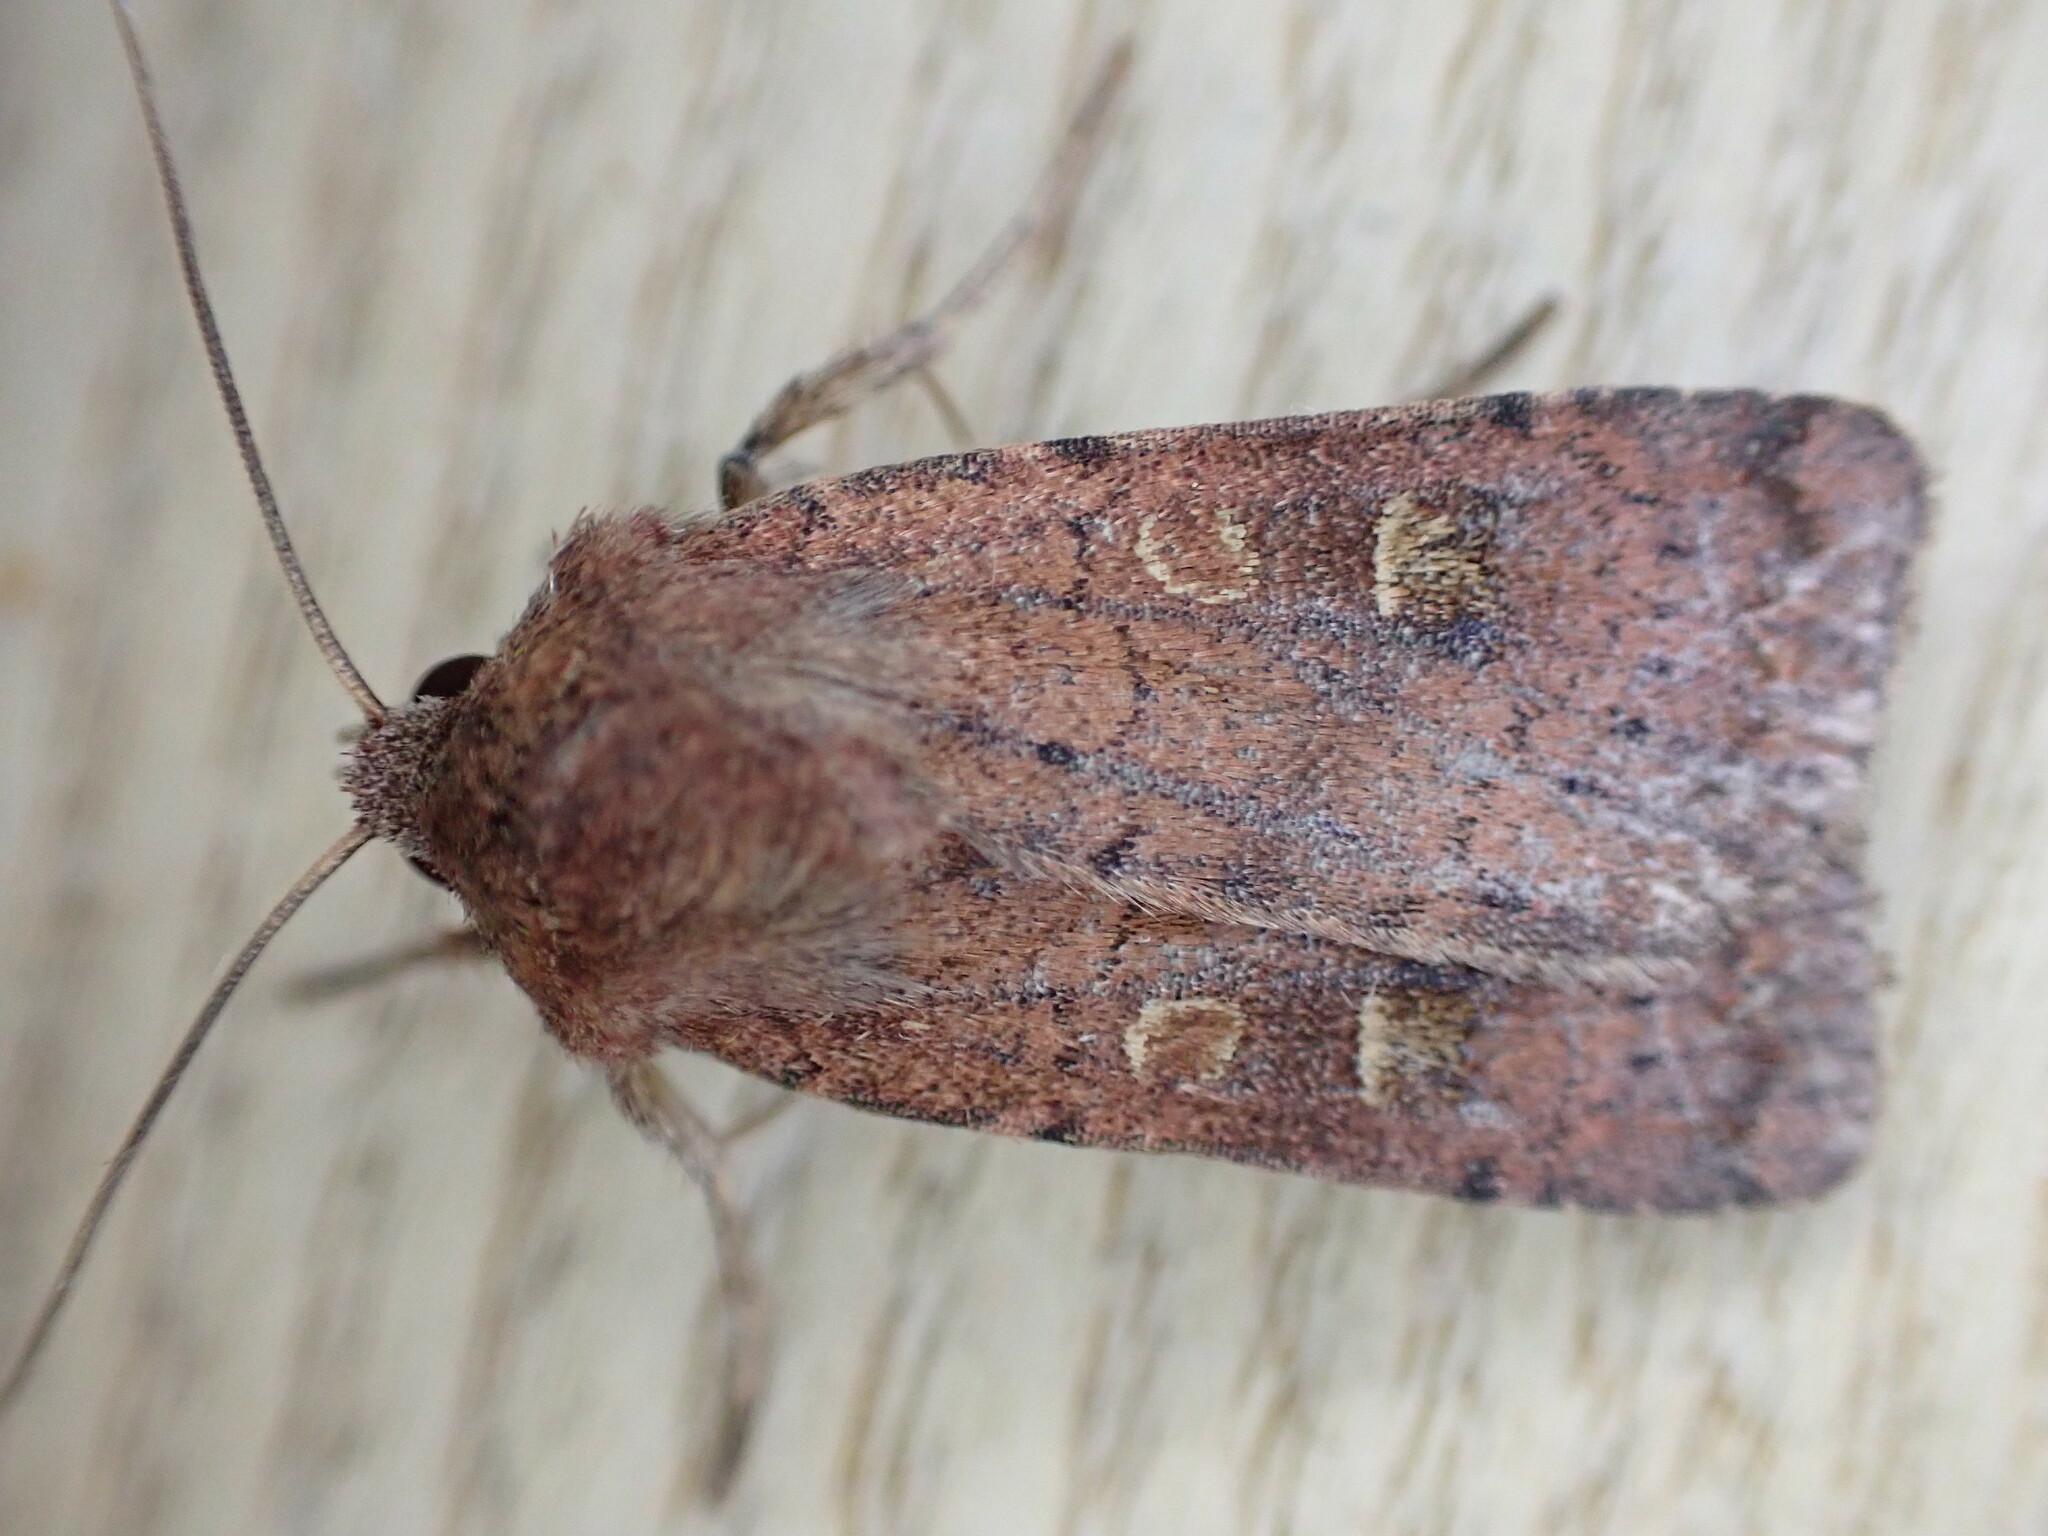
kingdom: Animalia
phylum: Arthropoda
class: Insecta
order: Lepidoptera
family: Noctuidae
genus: Xestia
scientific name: Xestia xanthographa
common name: Square-spot rustic
